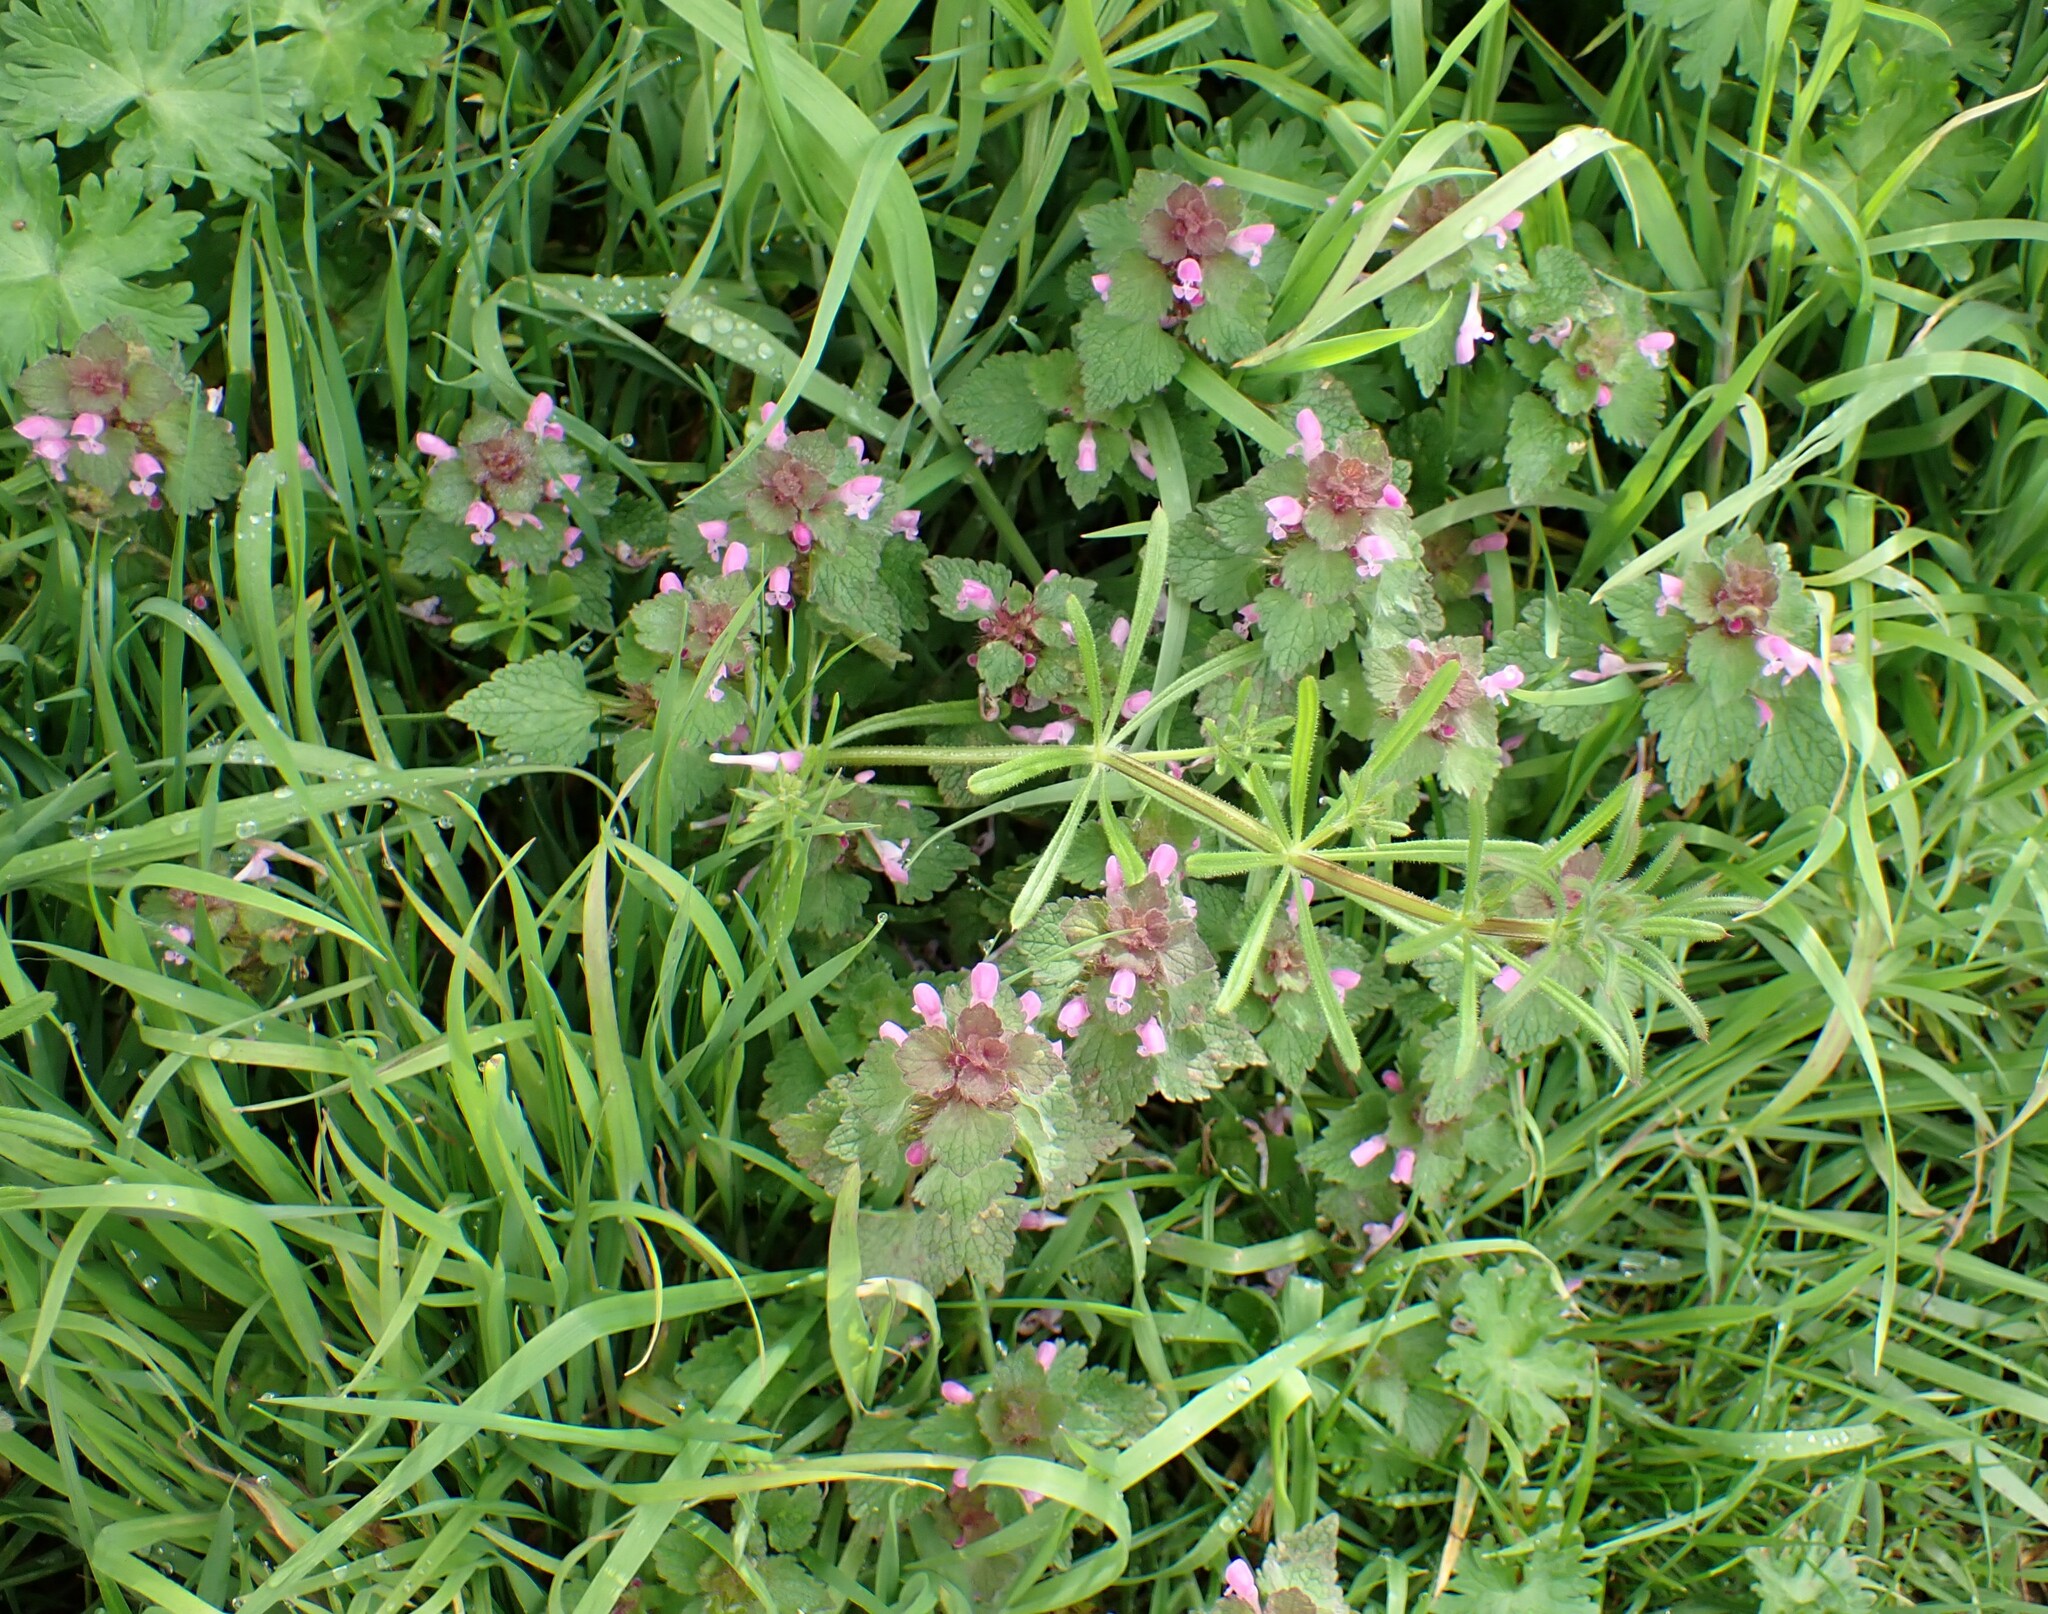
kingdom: Plantae
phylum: Tracheophyta
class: Magnoliopsida
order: Lamiales
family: Lamiaceae
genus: Lamium
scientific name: Lamium purpureum
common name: Red dead-nettle
